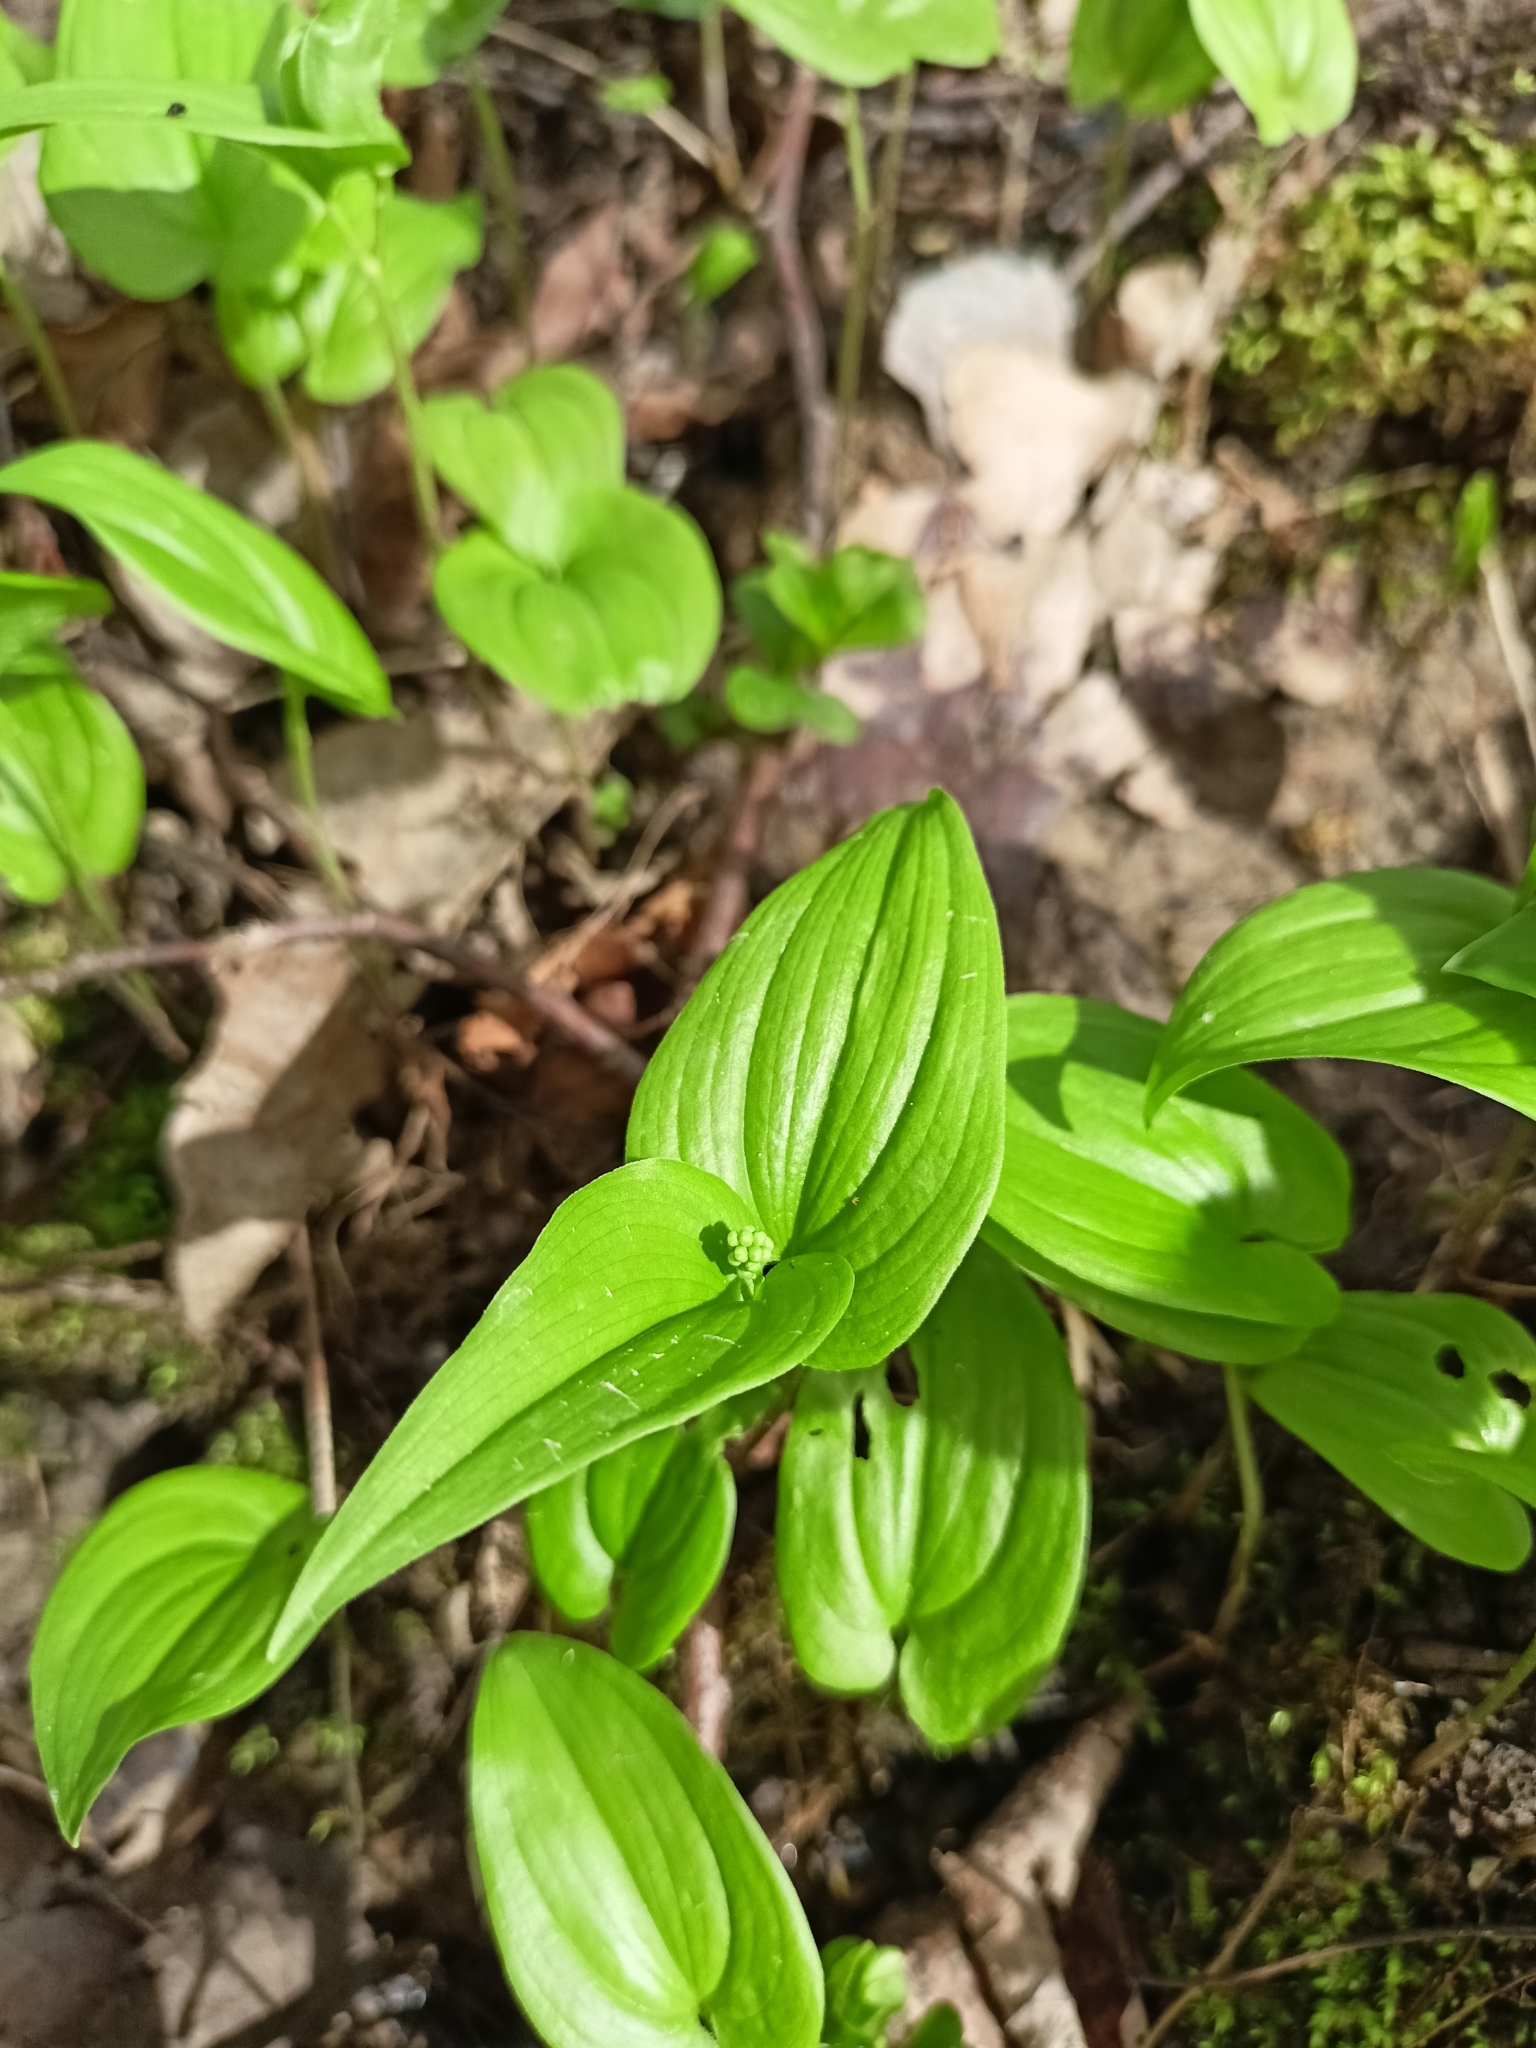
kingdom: Plantae
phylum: Tracheophyta
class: Liliopsida
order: Asparagales
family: Asparagaceae
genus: Maianthemum
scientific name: Maianthemum bifolium
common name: May lily
